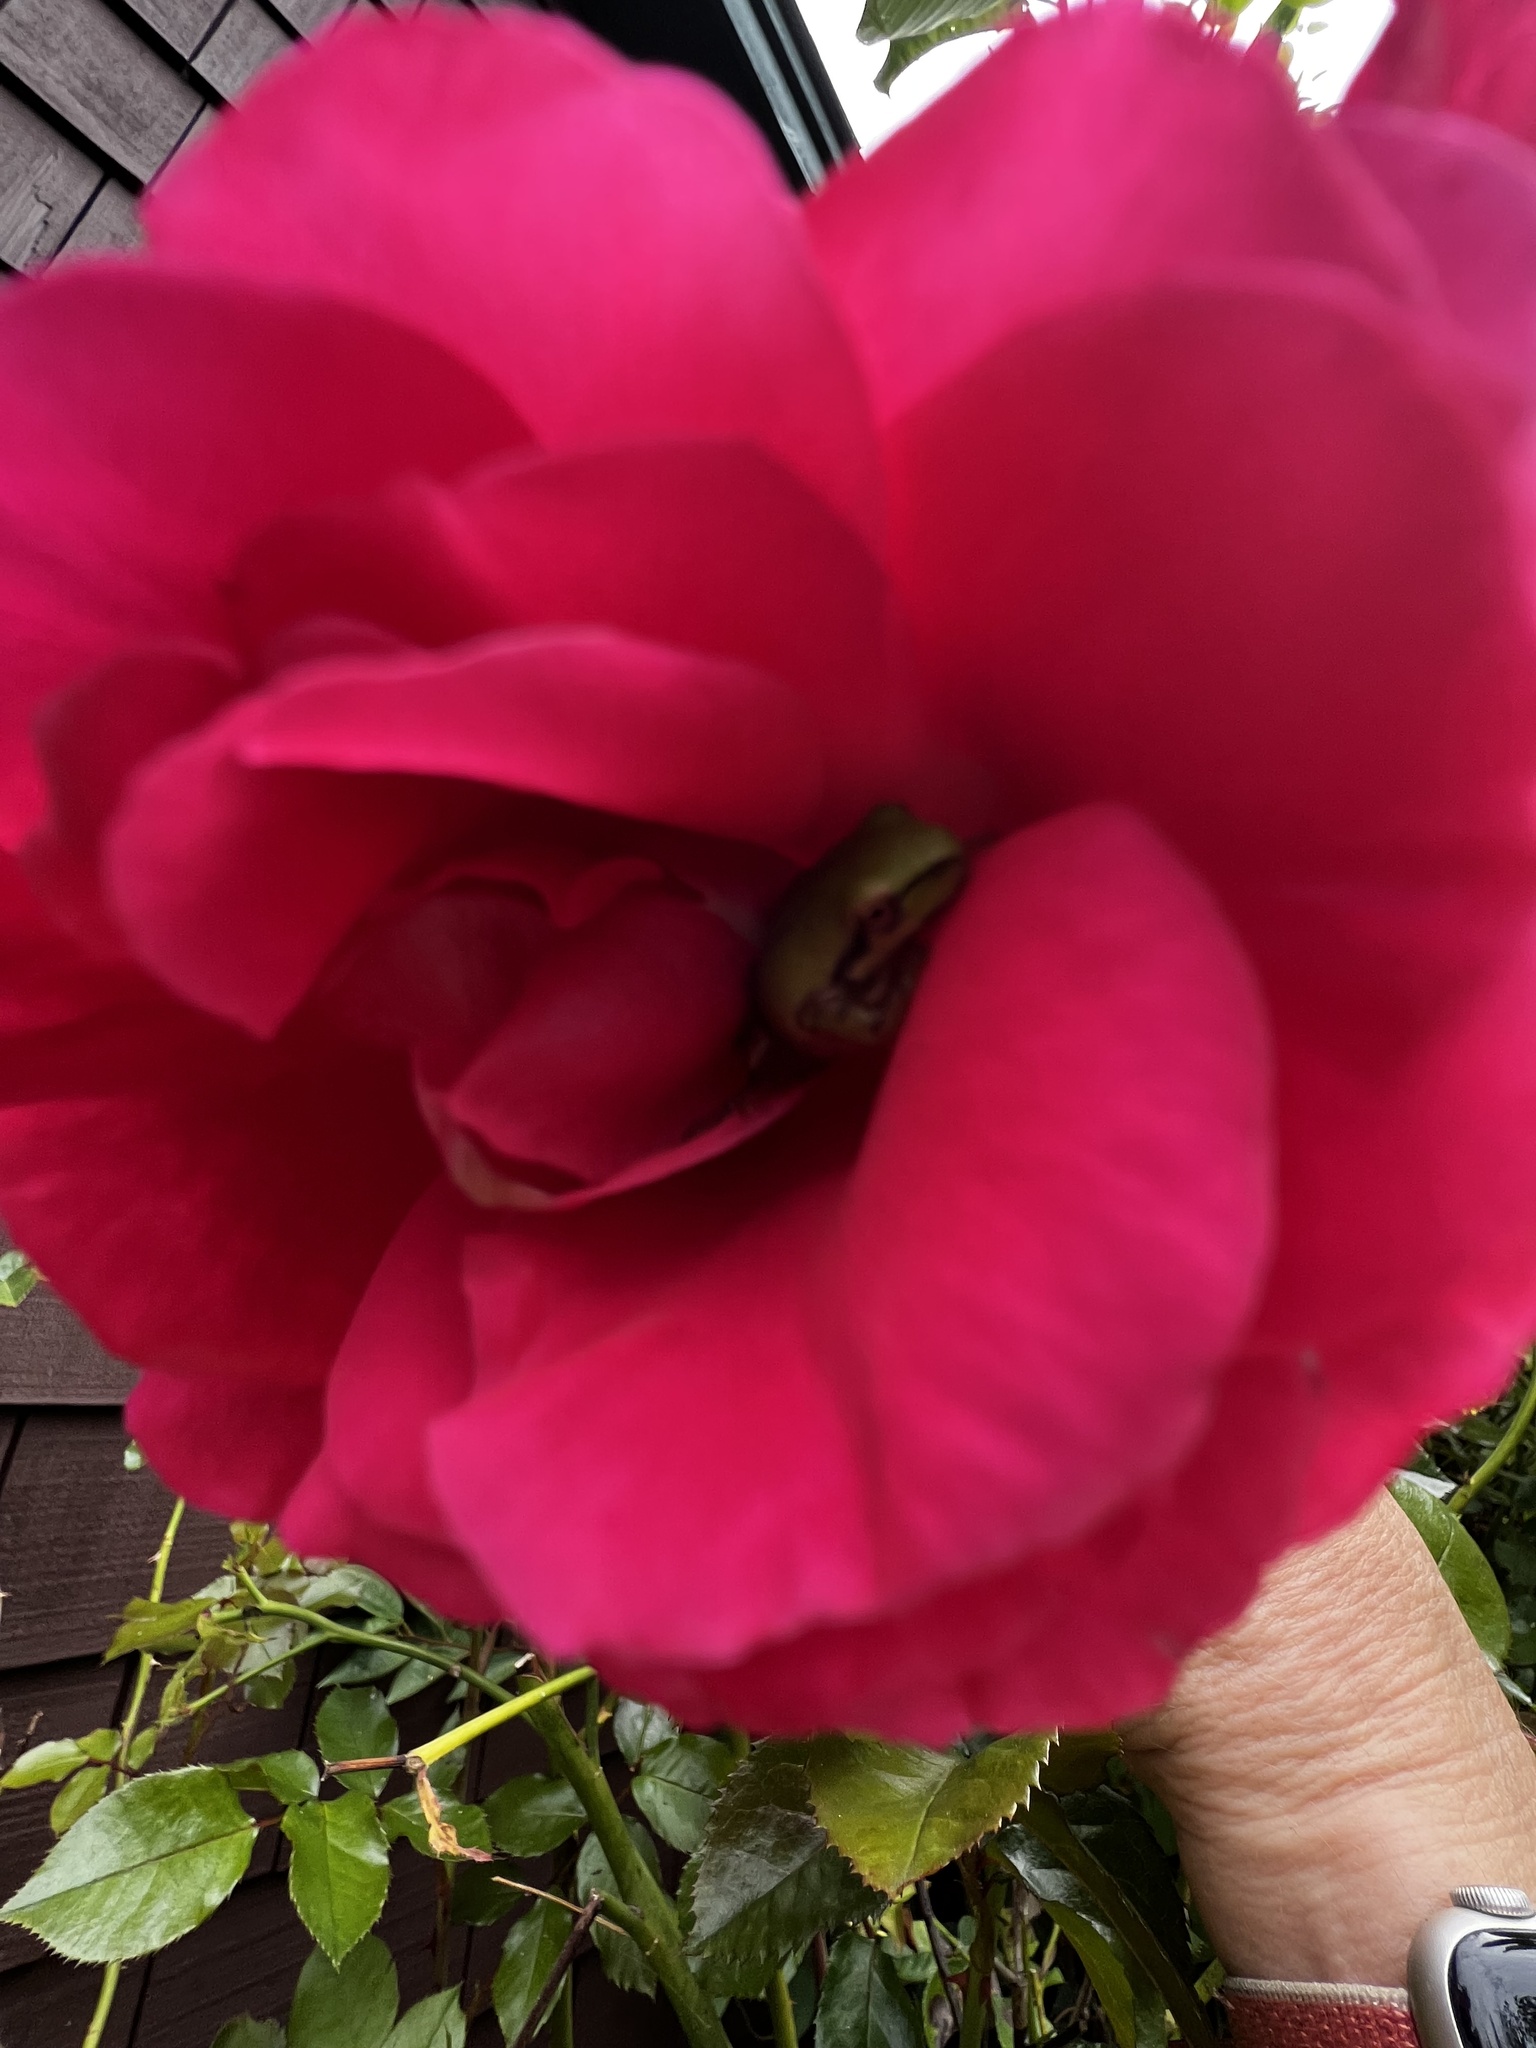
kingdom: Animalia
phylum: Chordata
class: Amphibia
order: Anura
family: Hylidae
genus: Pseudacris
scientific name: Pseudacris regilla
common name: Pacific chorus frog
